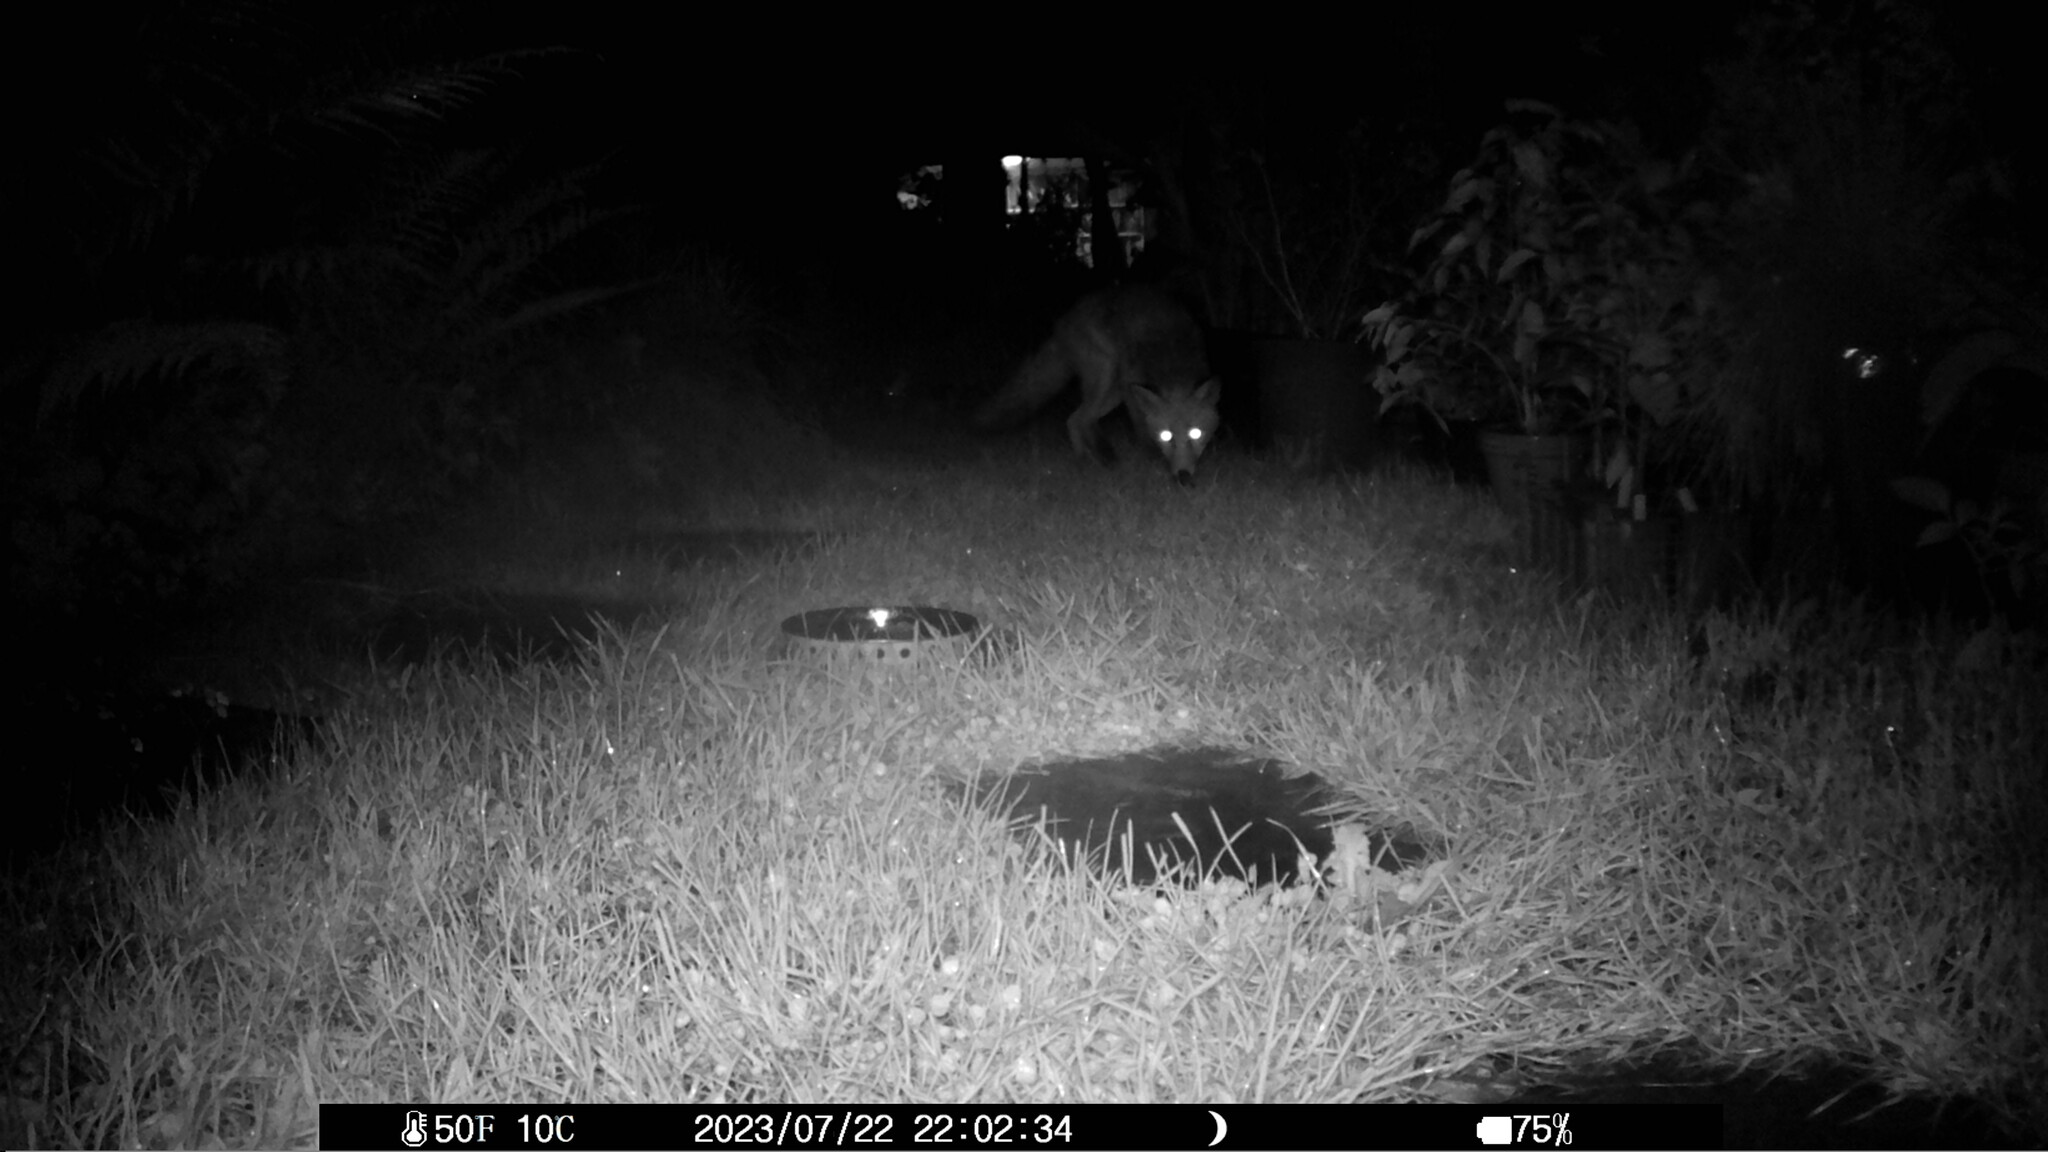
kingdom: Animalia
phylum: Chordata
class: Mammalia
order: Carnivora
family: Canidae
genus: Vulpes
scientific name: Vulpes vulpes
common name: Red fox
